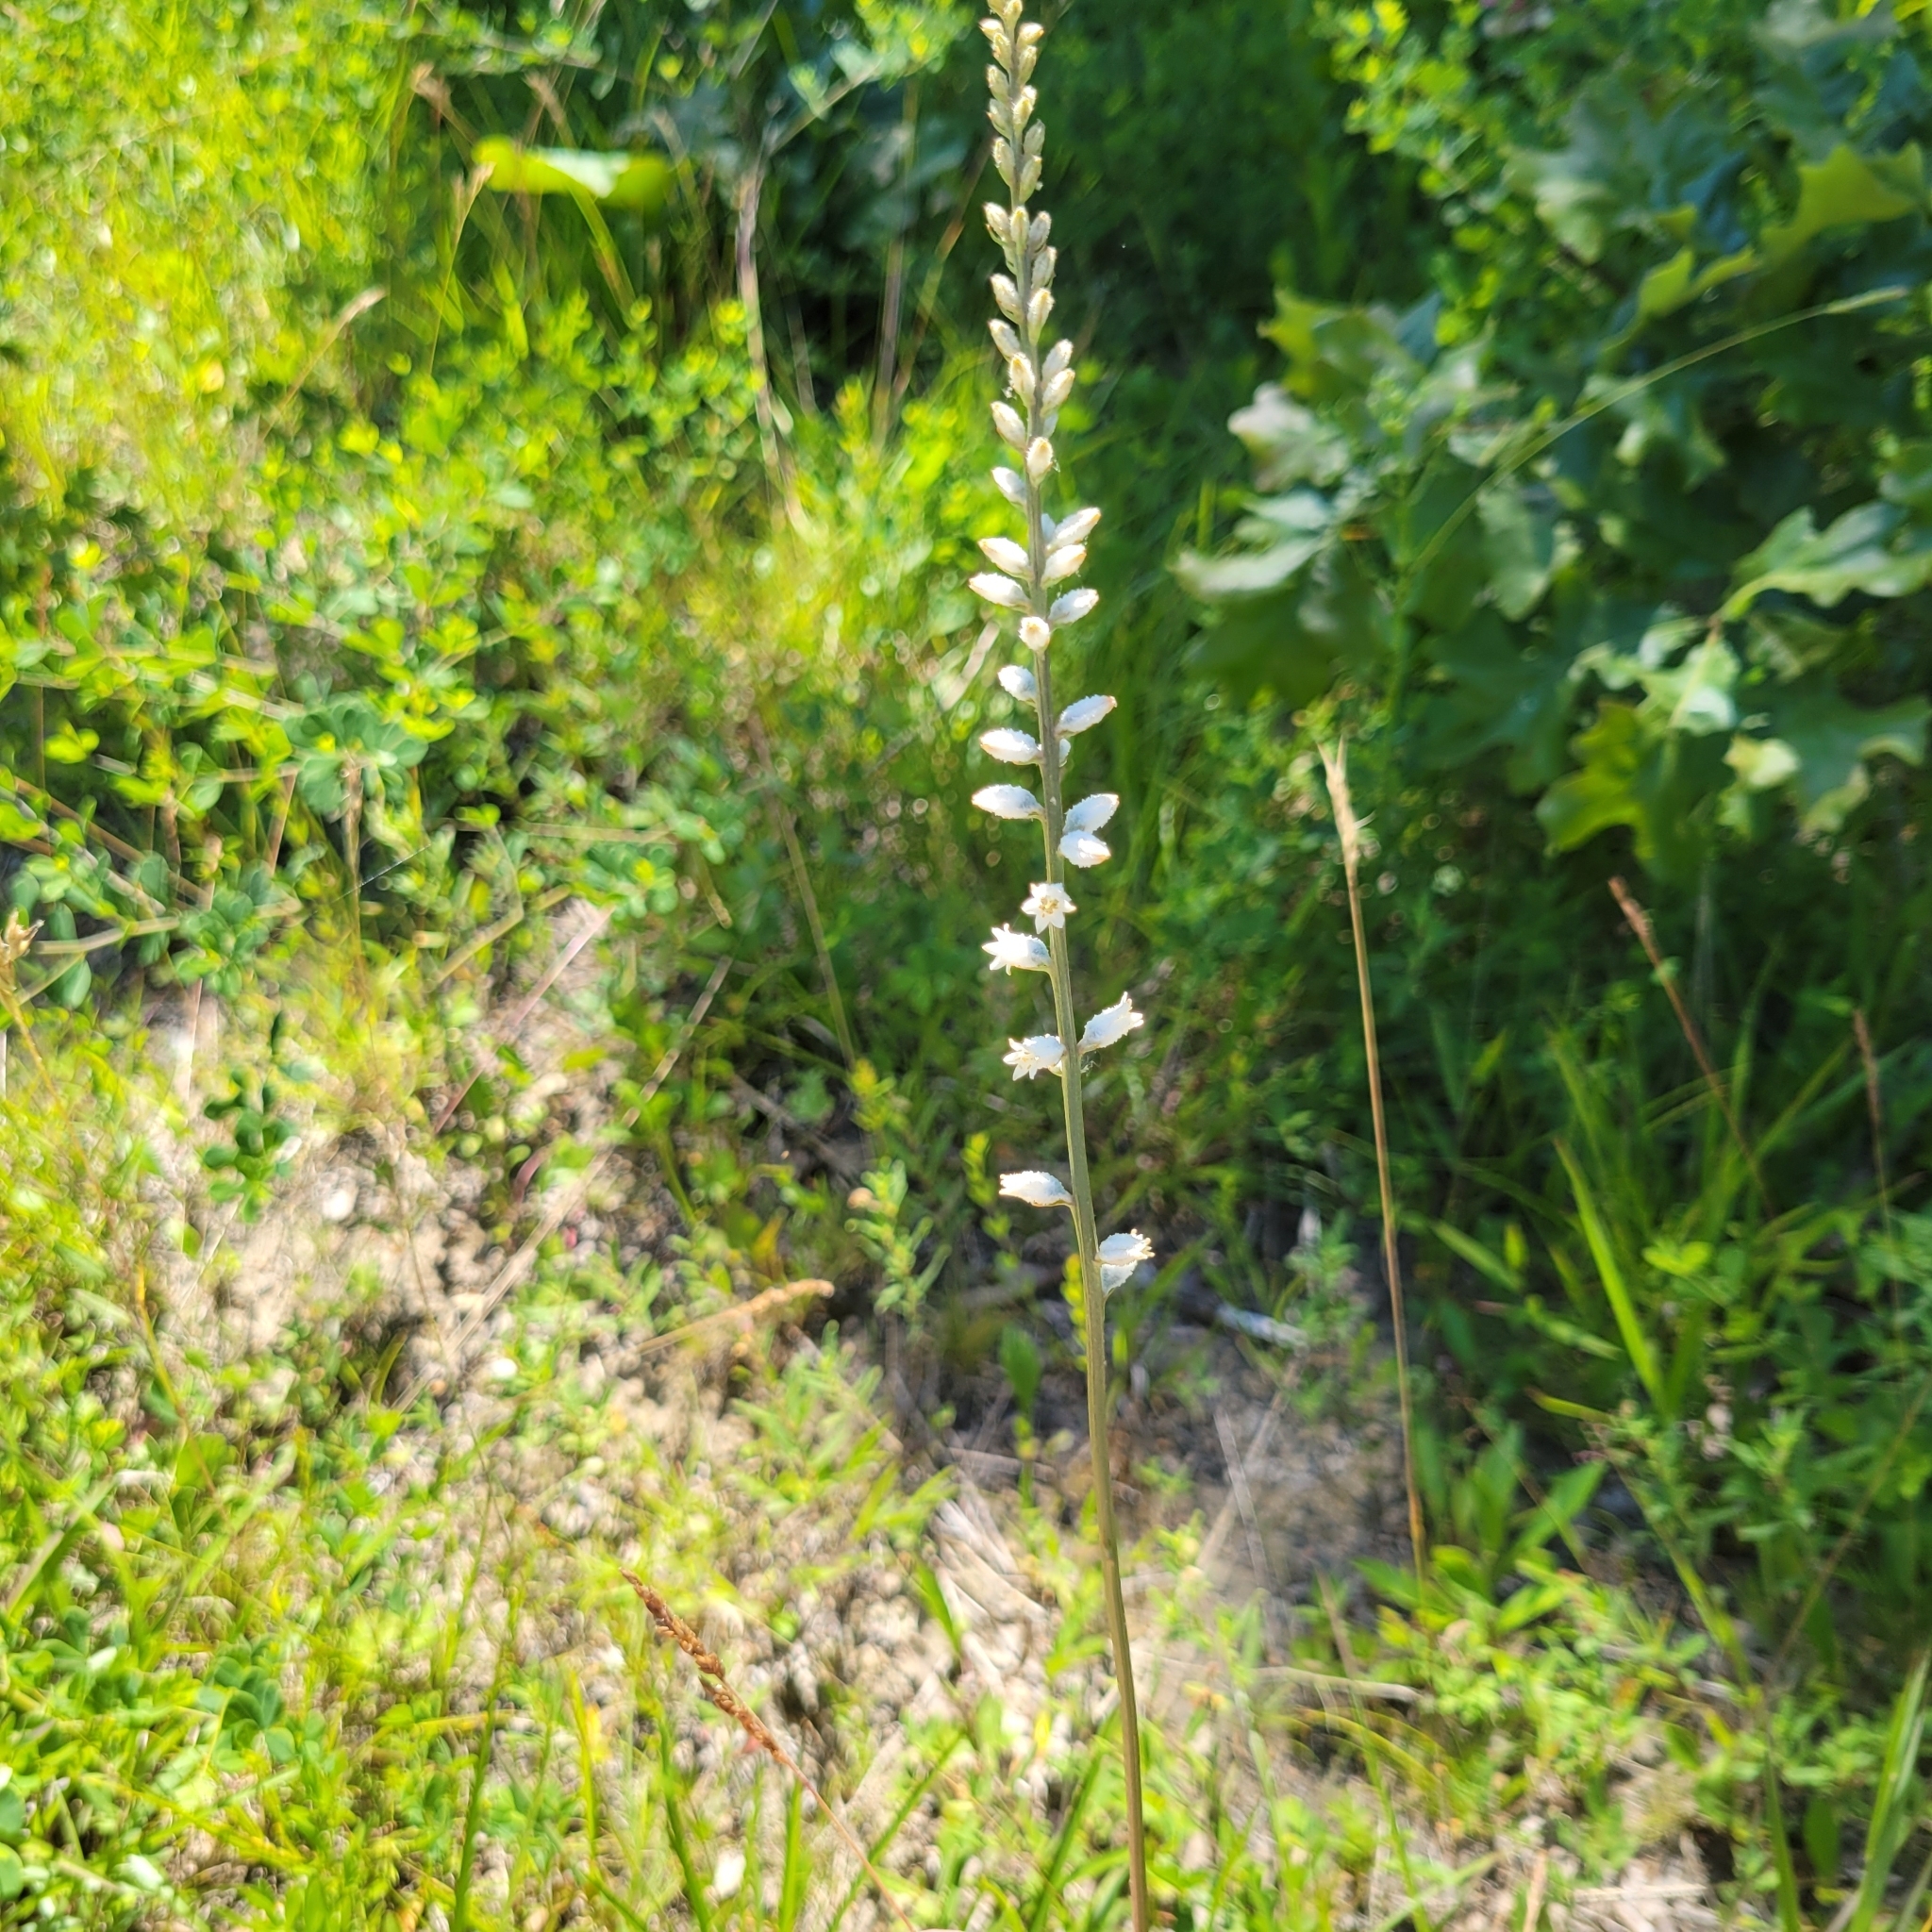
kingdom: Plantae
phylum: Tracheophyta
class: Liliopsida
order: Dioscoreales
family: Nartheciaceae
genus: Aletris
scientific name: Aletris farinosa
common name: Colicroot
